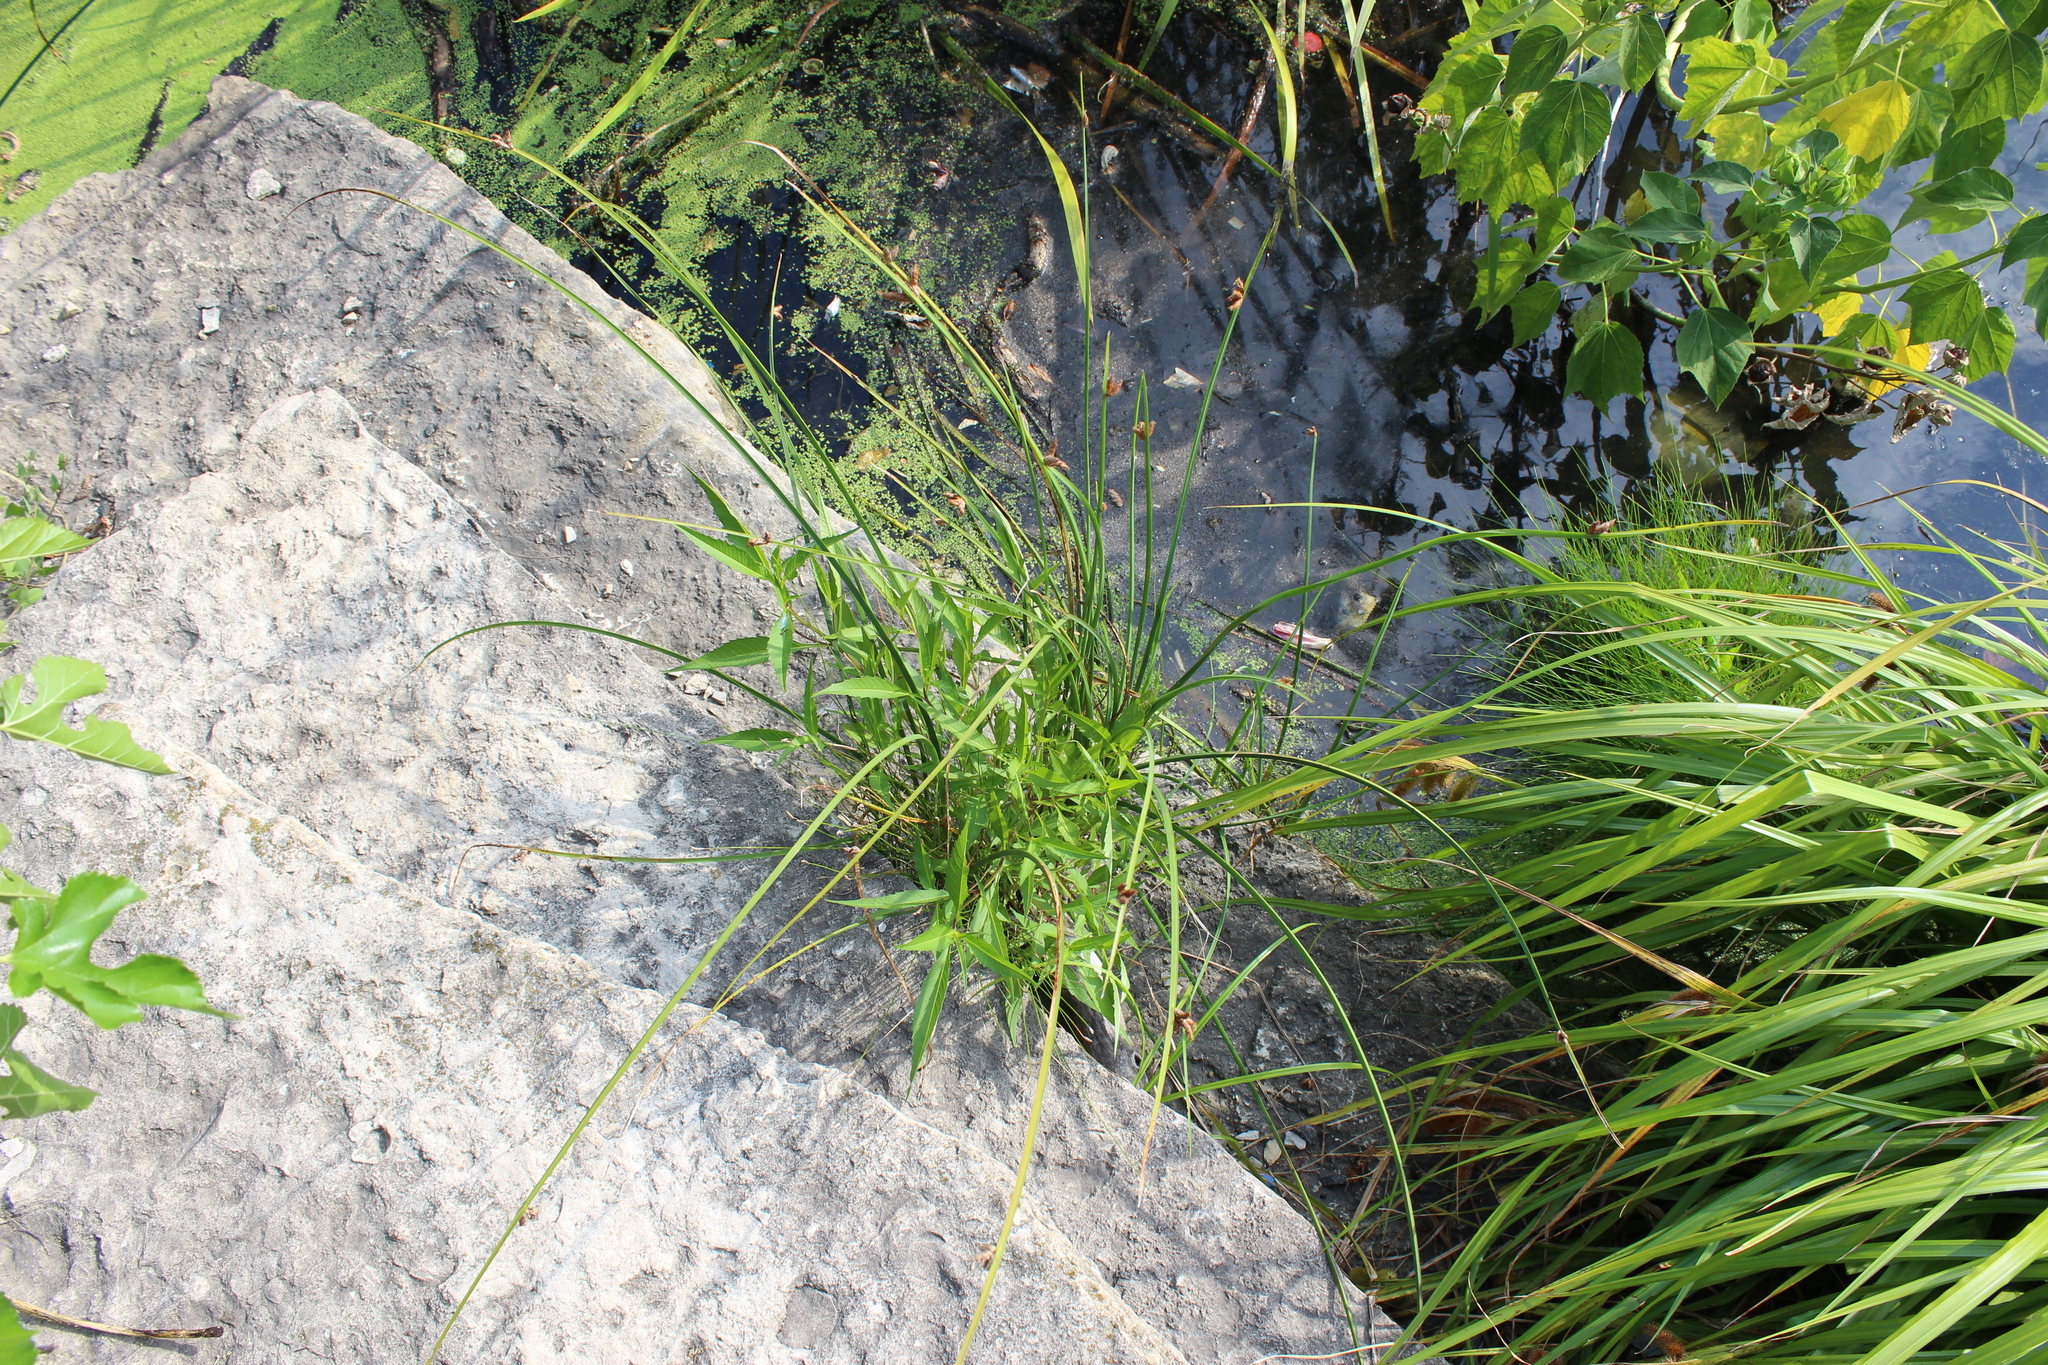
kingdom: Plantae
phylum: Tracheophyta
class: Liliopsida
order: Poales
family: Cyperaceae
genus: Schoenoplectus
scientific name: Schoenoplectus pungens
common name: Sharp club-rush
